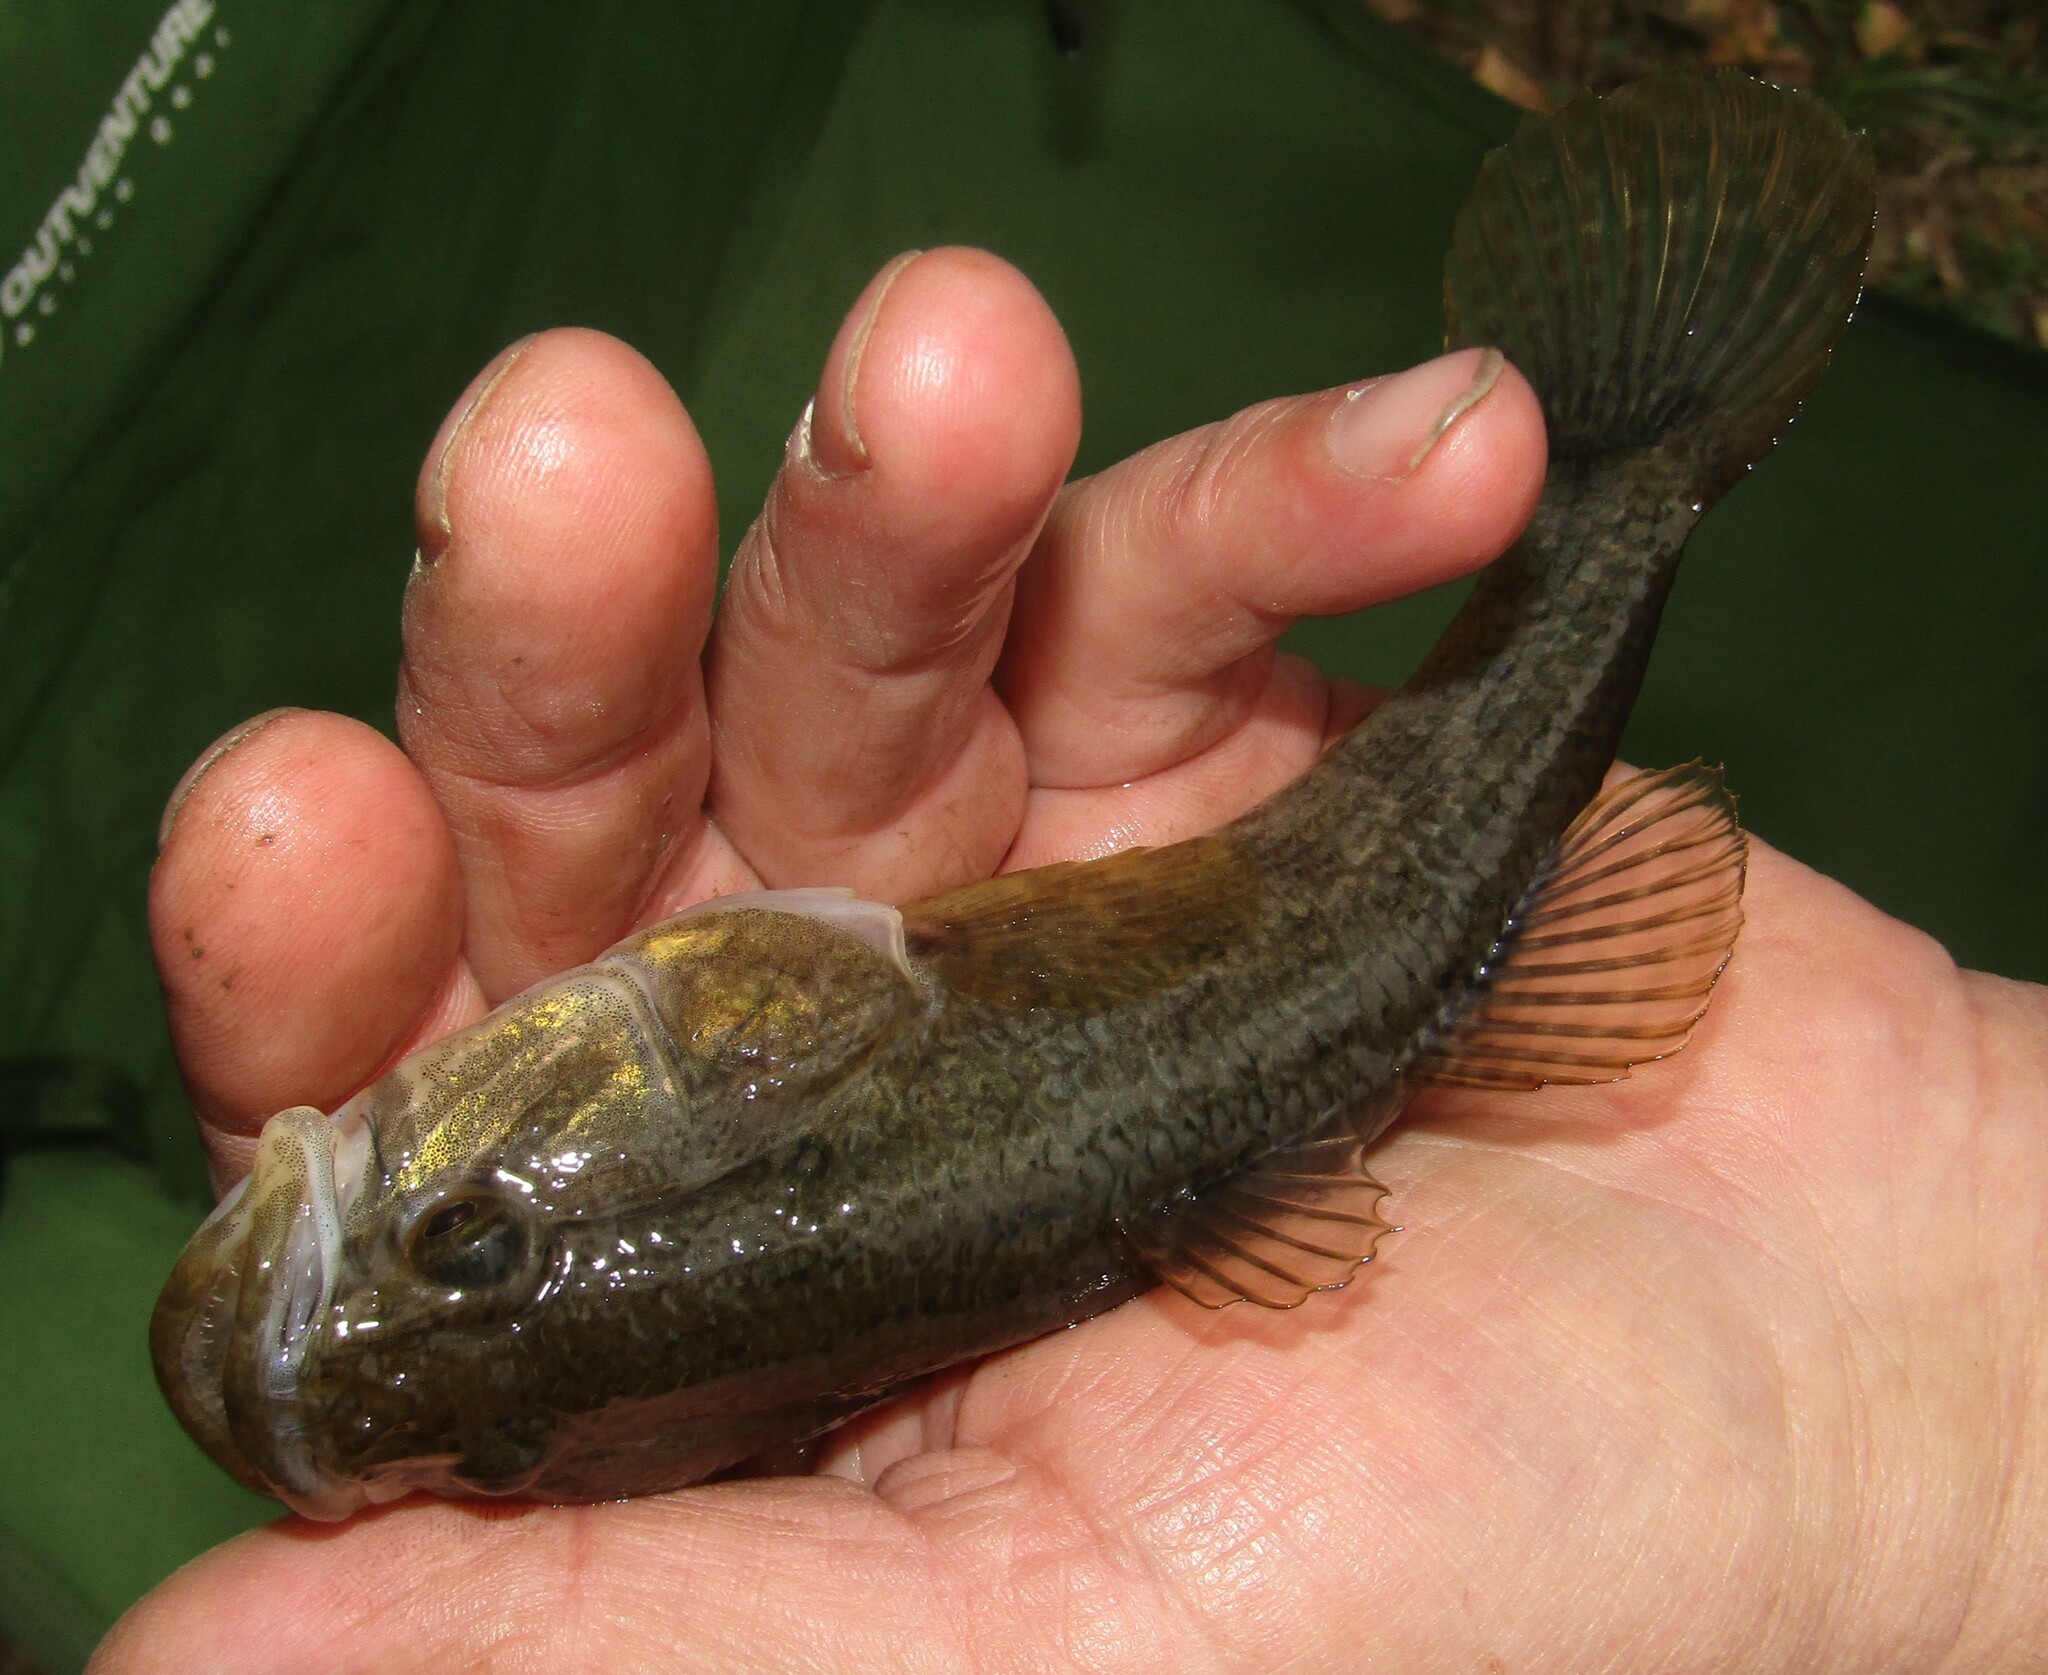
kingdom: Animalia
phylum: Chordata
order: Perciformes
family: Odontobutidae
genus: Perccottus
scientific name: Perccottus glenii
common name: Amur sleeper
